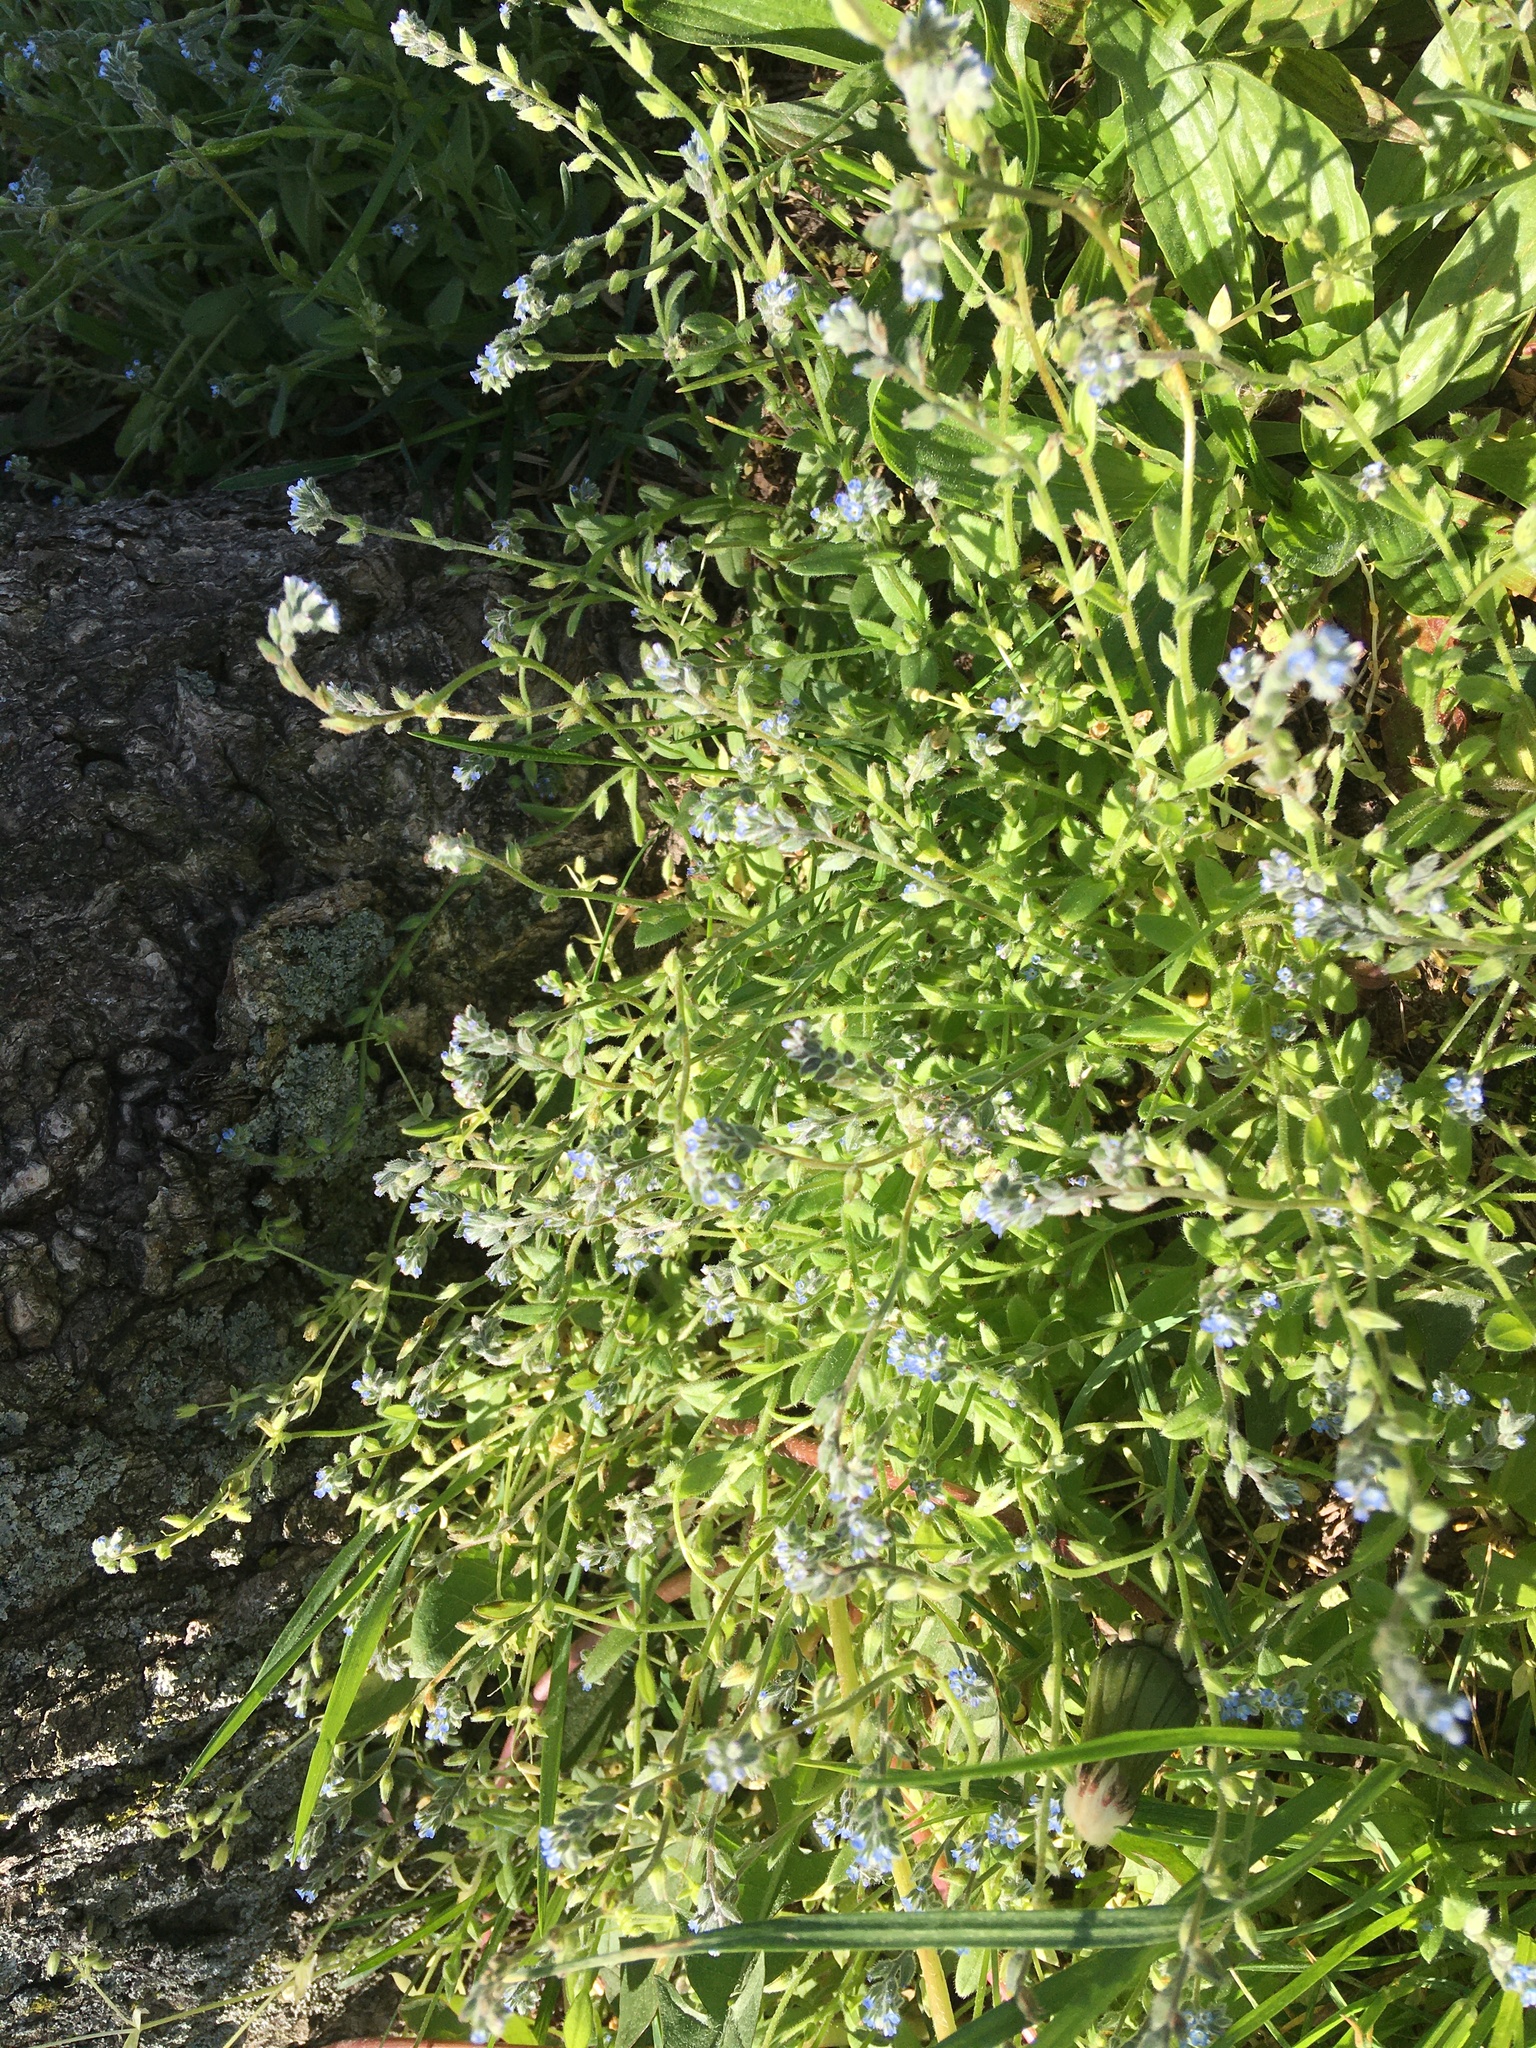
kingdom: Plantae
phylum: Tracheophyta
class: Magnoliopsida
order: Boraginales
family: Boraginaceae
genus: Myosotis
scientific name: Myosotis stricta
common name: Strict forget-me-not
